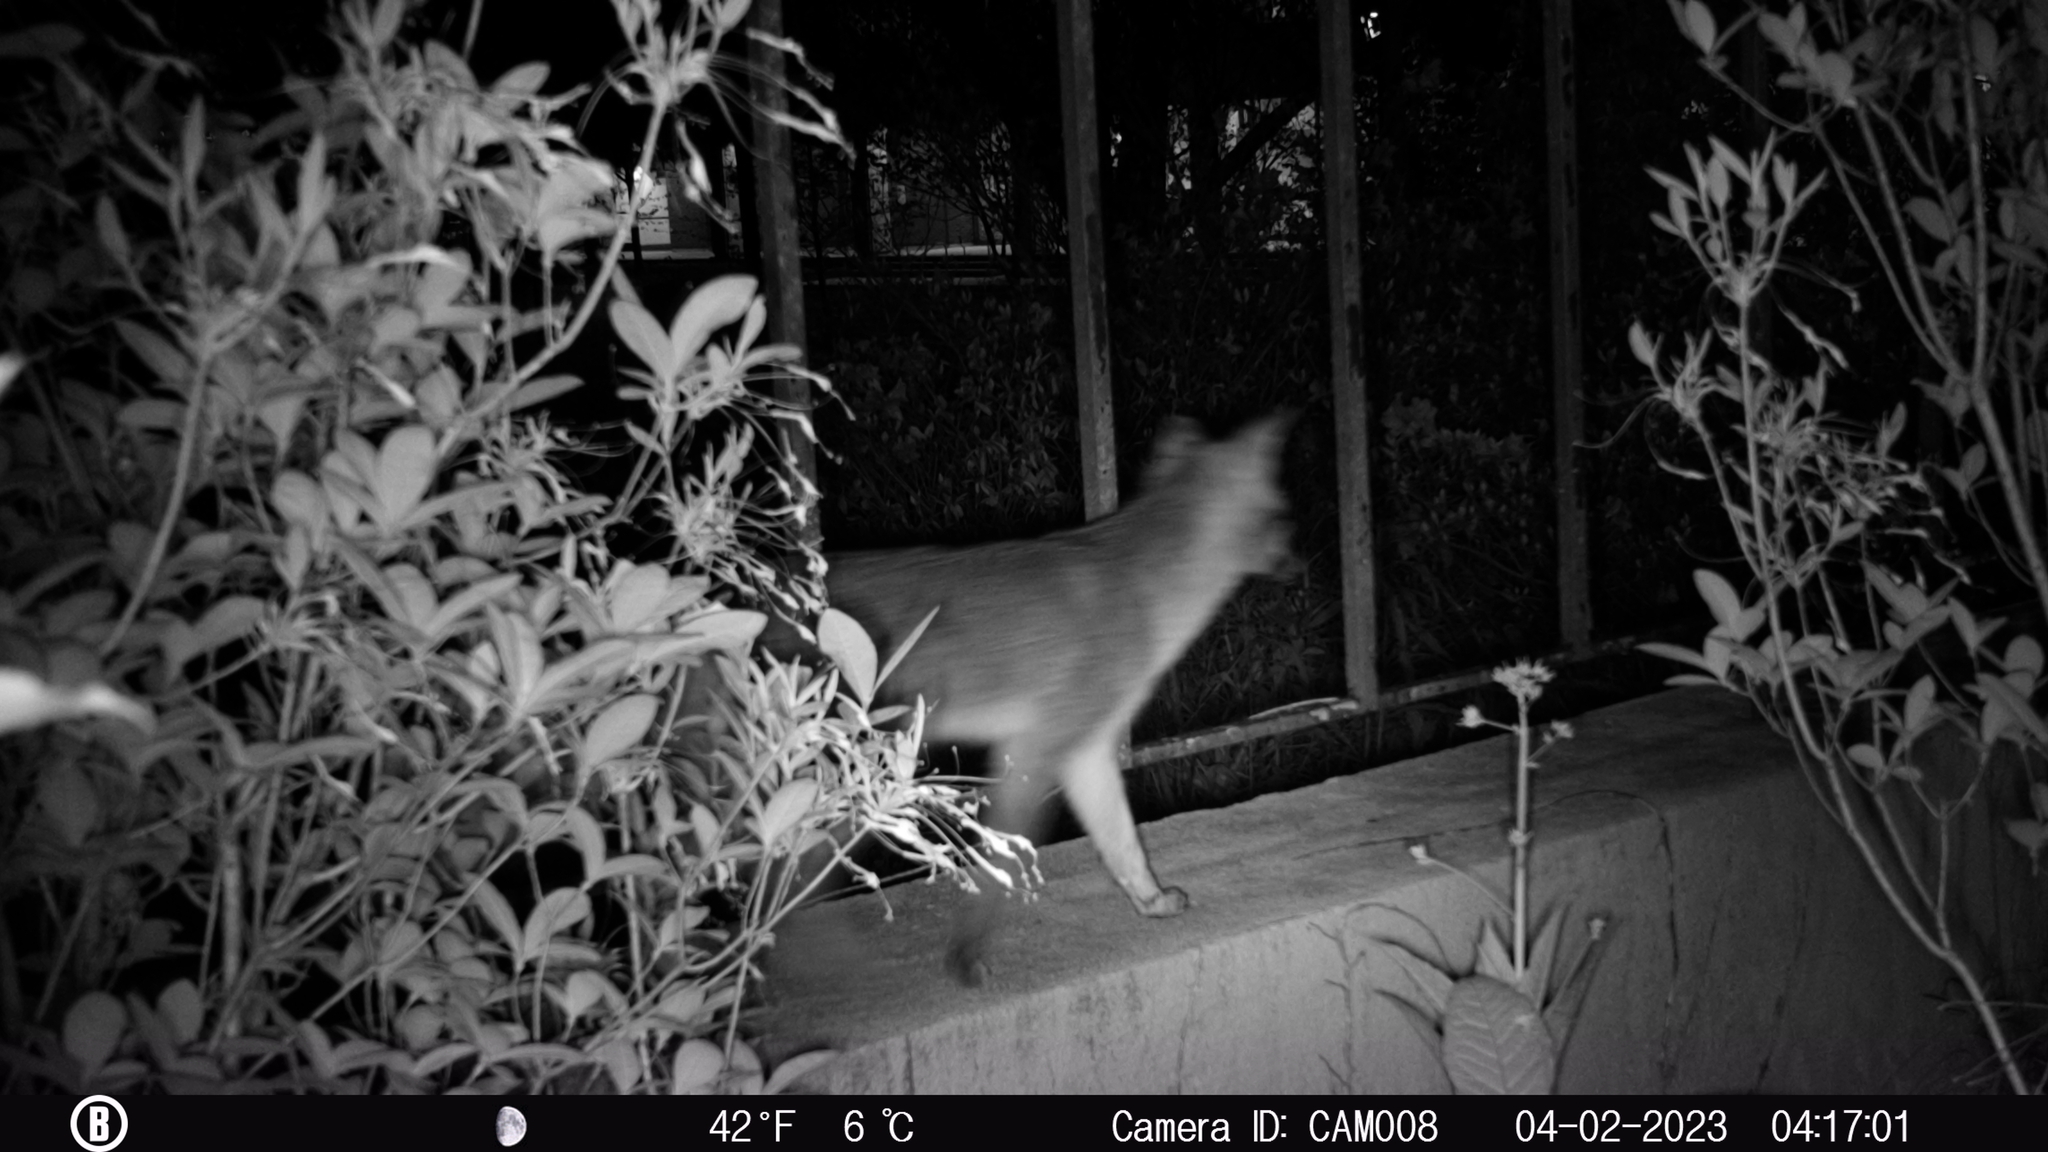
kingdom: Animalia
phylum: Chordata
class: Mammalia
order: Carnivora
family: Canidae
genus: Urocyon
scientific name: Urocyon cinereoargenteus
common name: Gray fox
